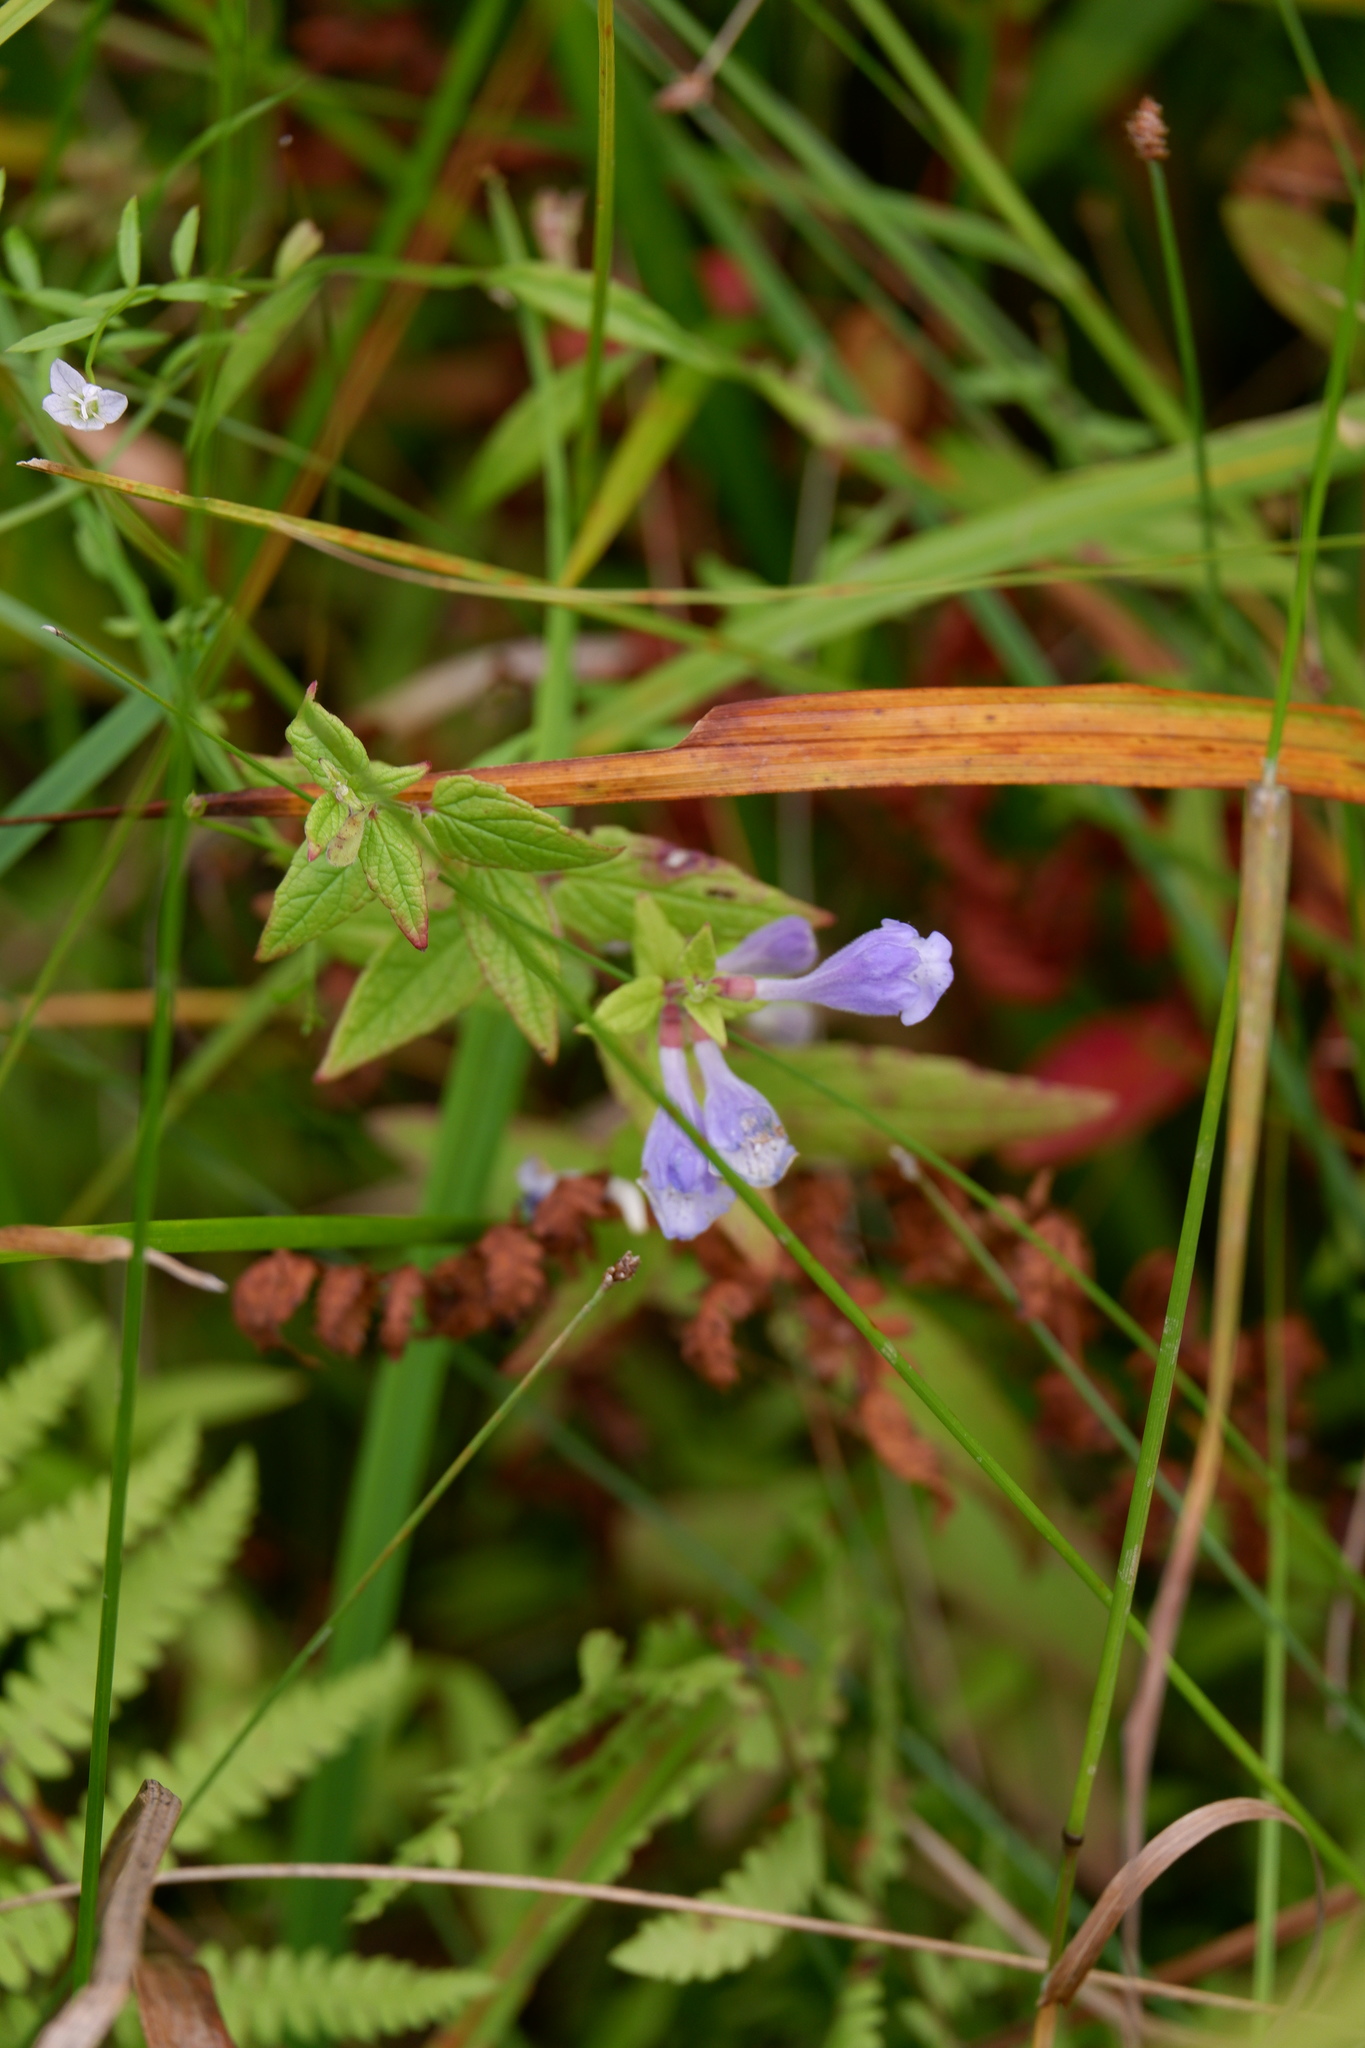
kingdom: Plantae
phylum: Tracheophyta
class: Magnoliopsida
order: Lamiales
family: Lamiaceae
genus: Scutellaria
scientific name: Scutellaria galericulata
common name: Skullcap
